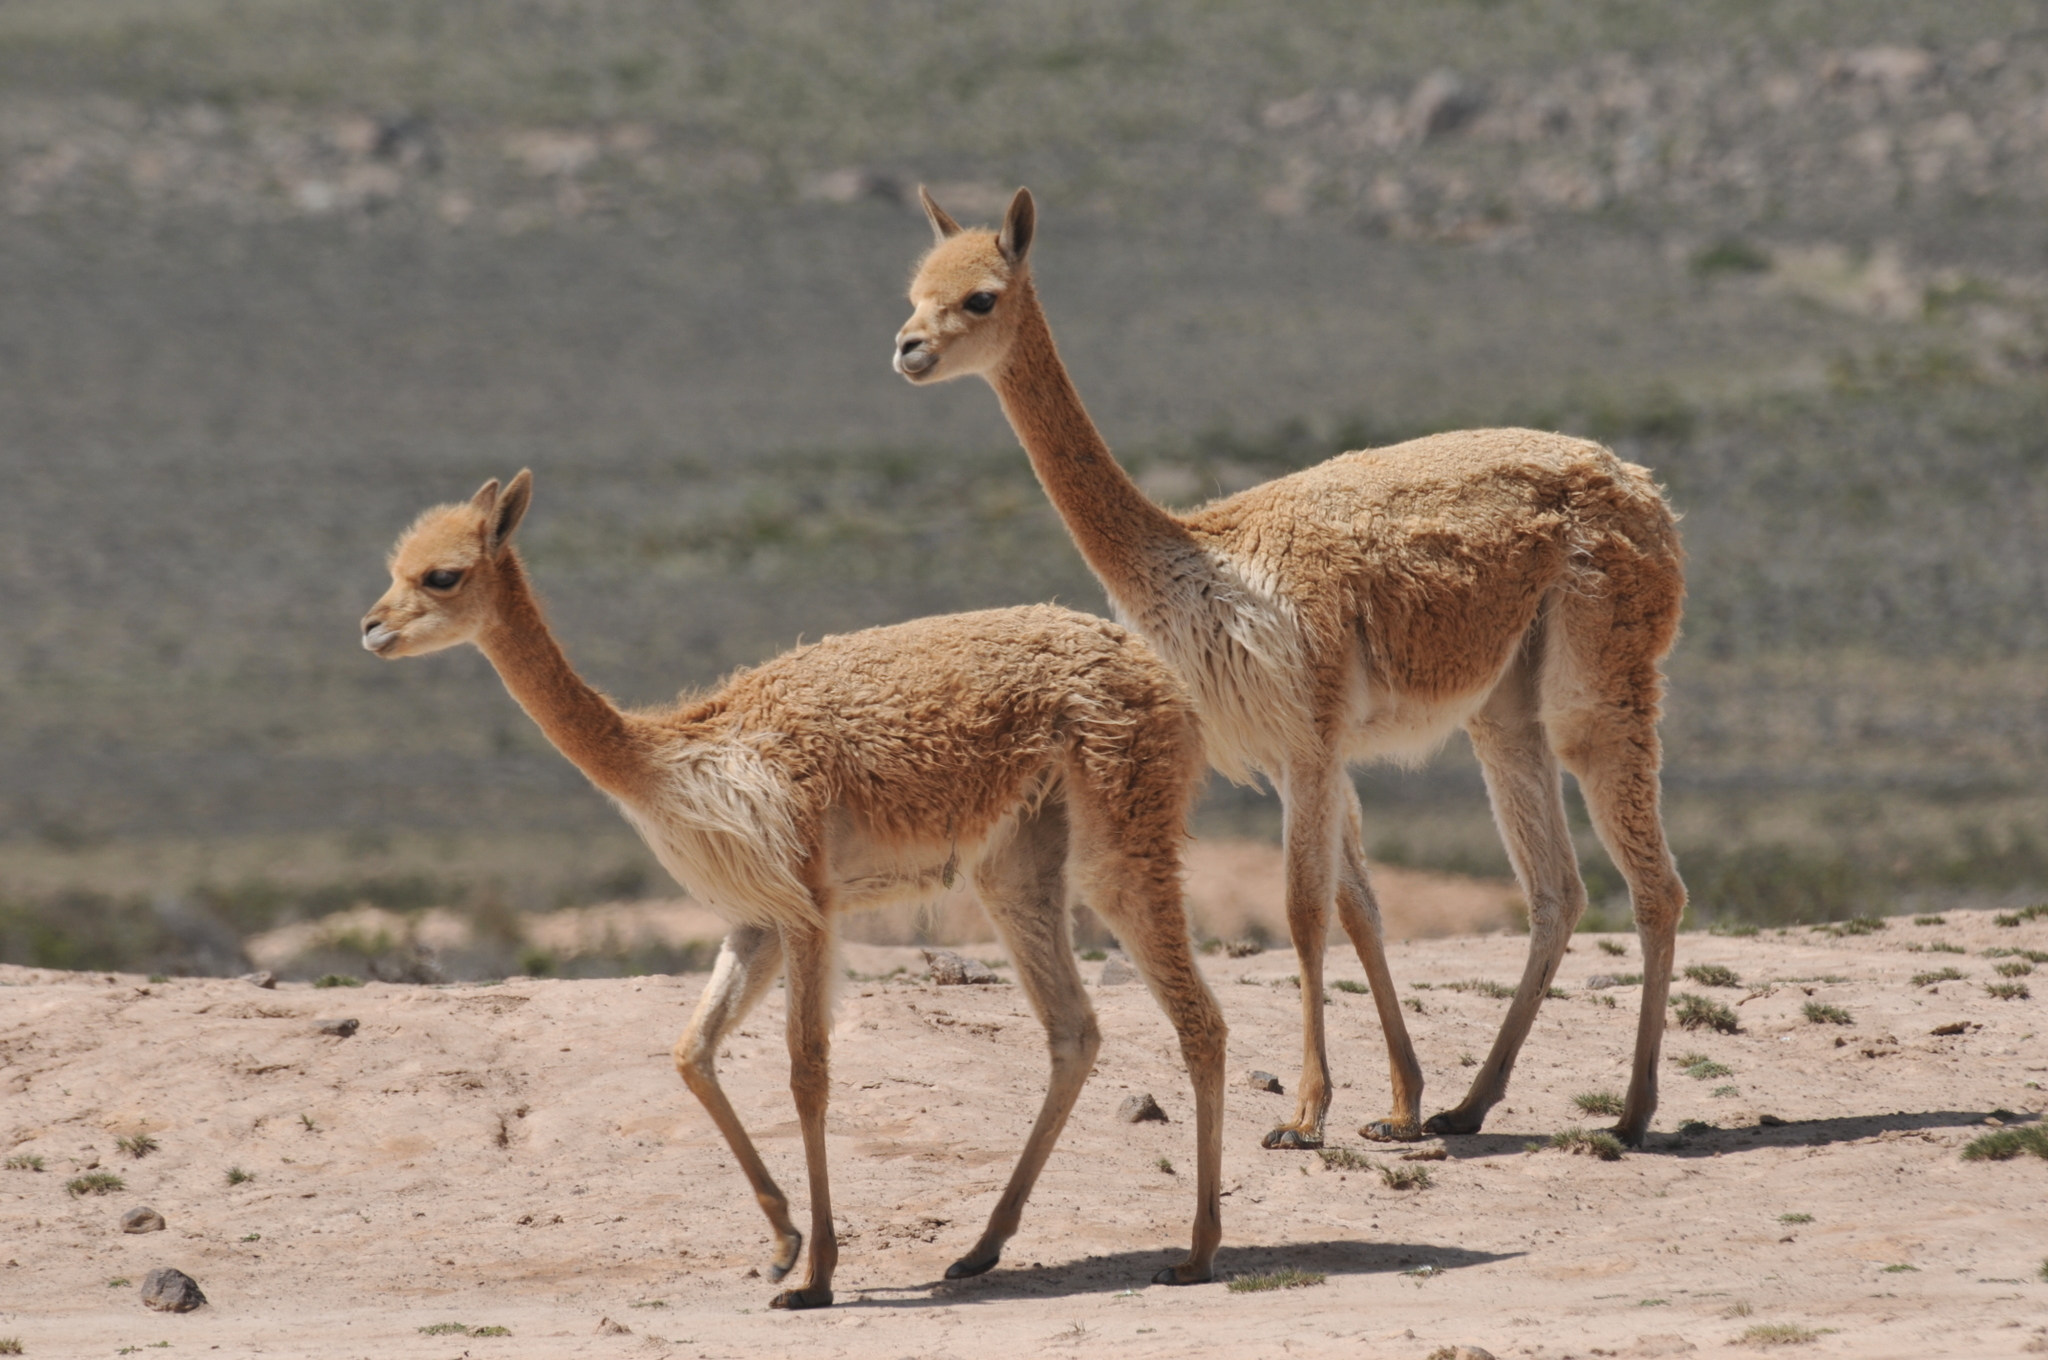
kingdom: Animalia
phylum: Chordata
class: Mammalia
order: Artiodactyla
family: Camelidae
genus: Vicugna
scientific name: Vicugna vicugna
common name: Vicugna
